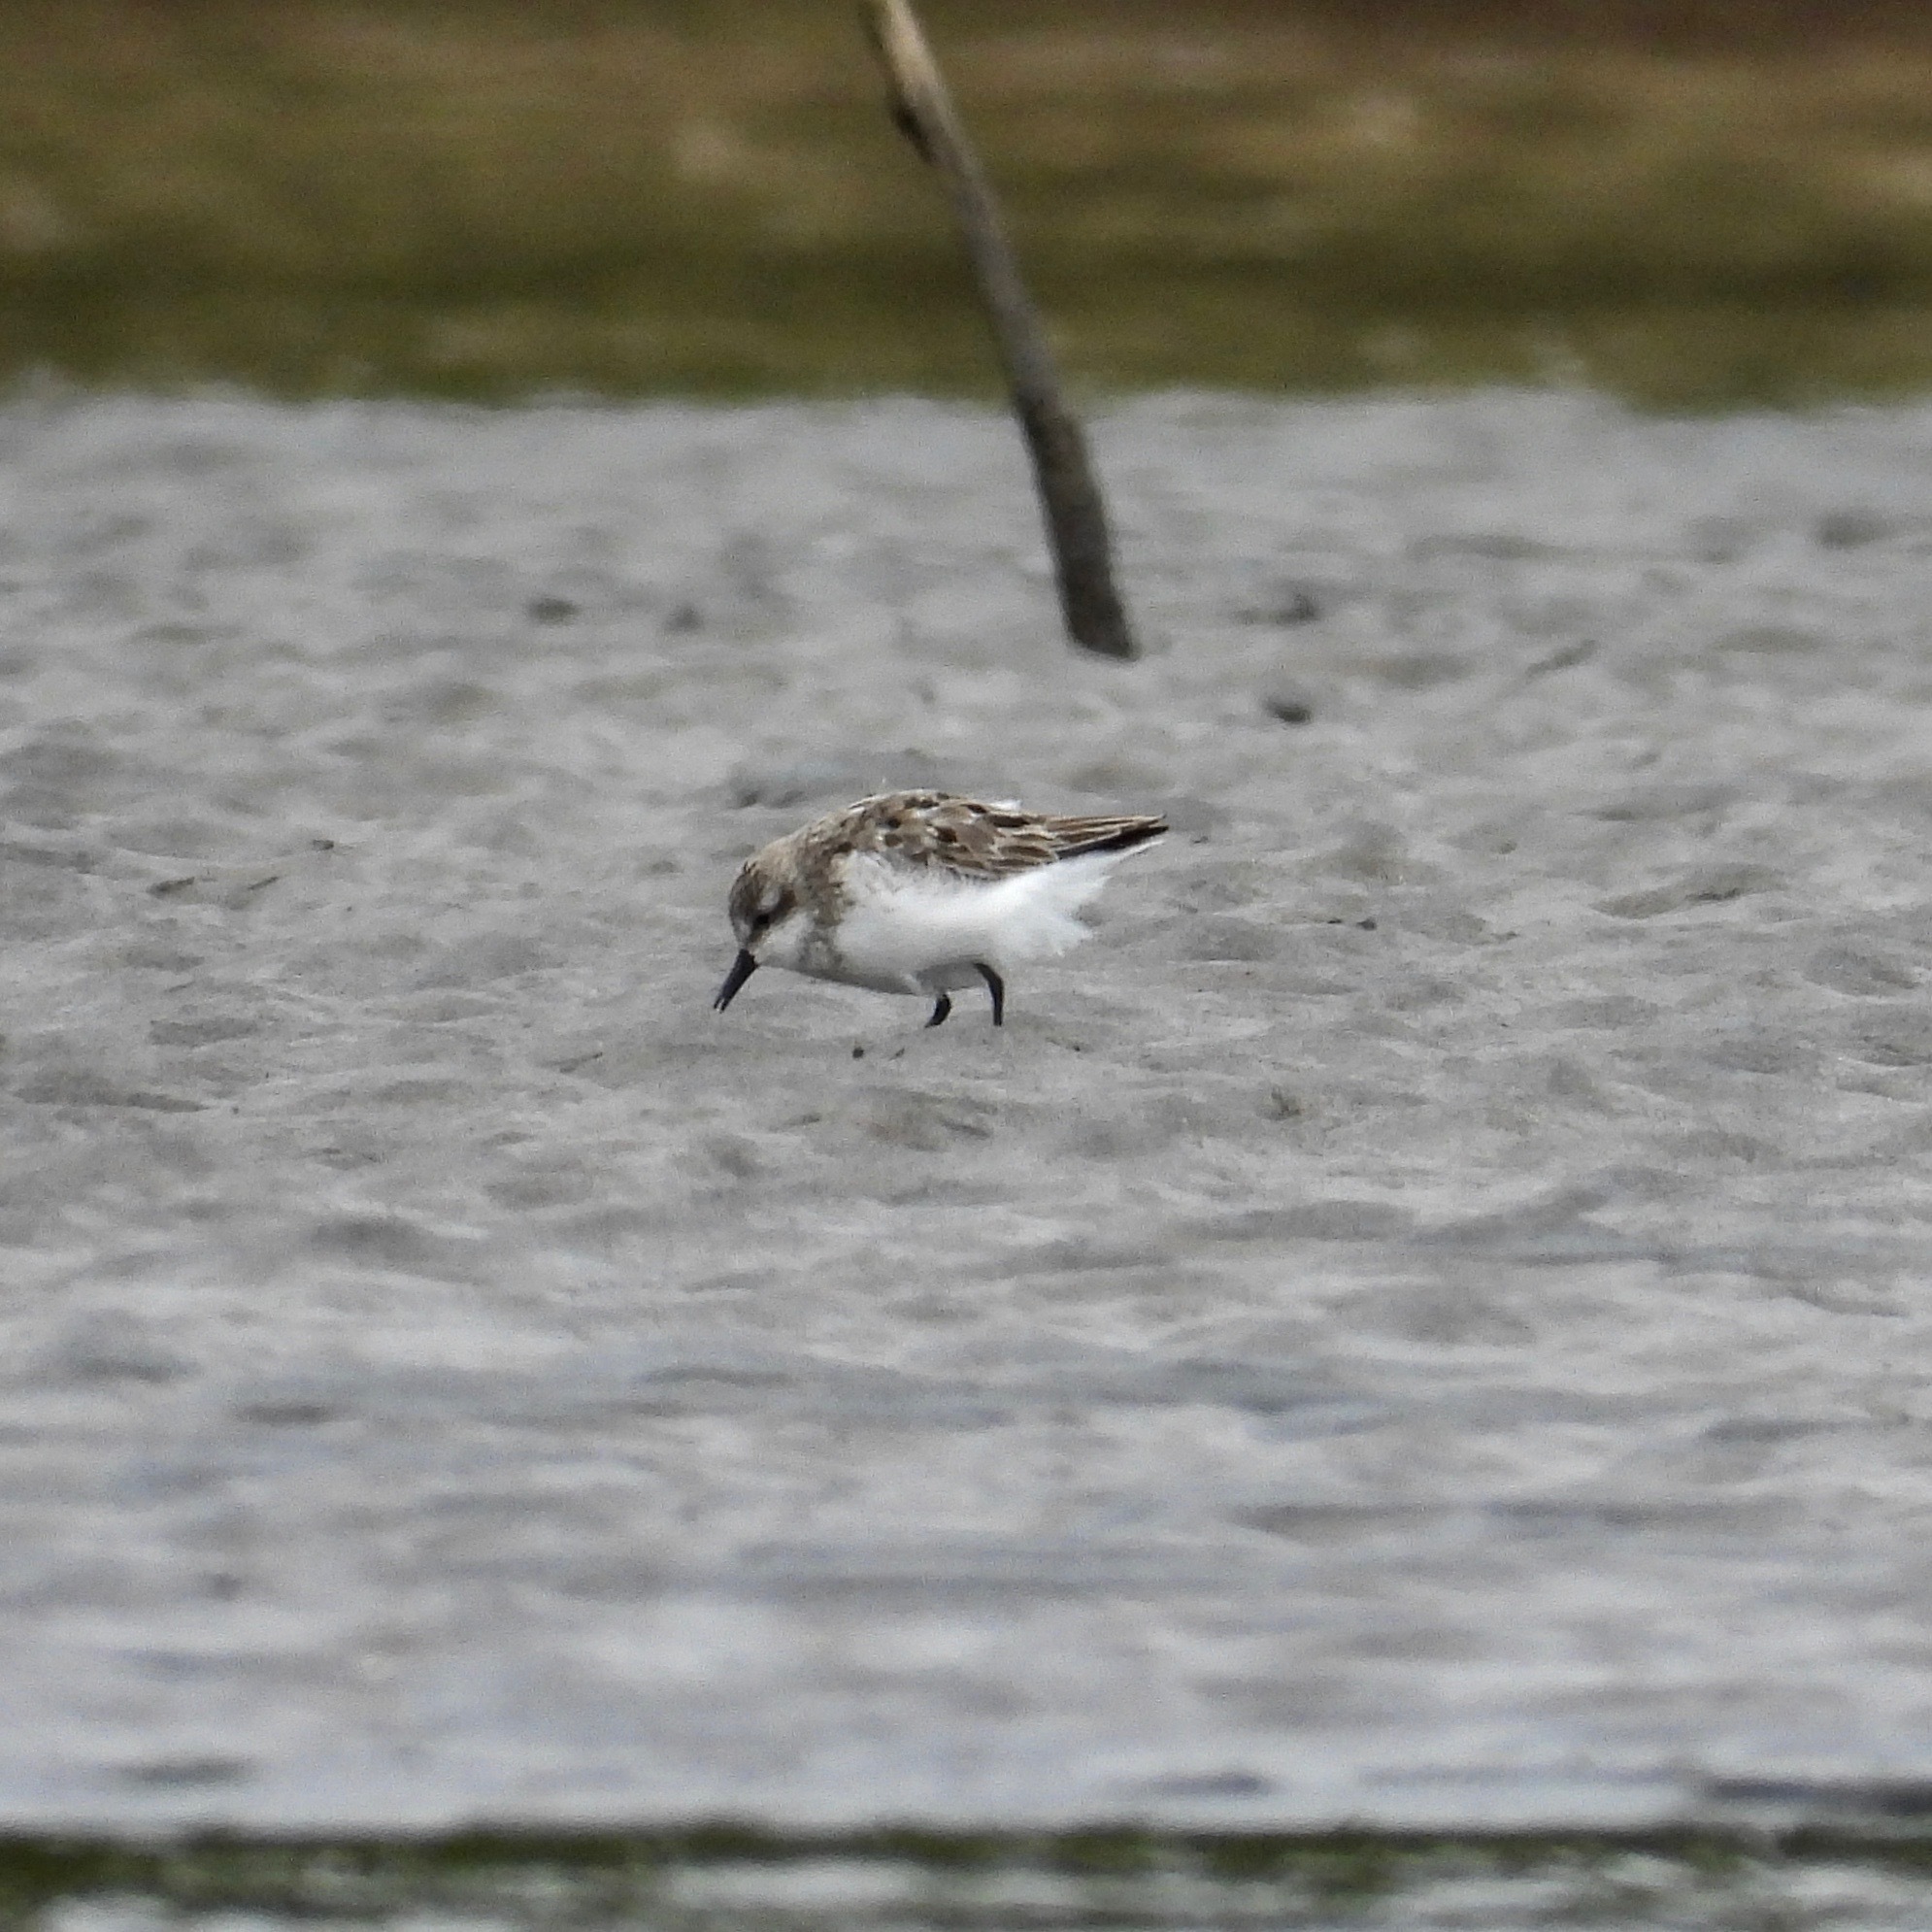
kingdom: Animalia
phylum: Chordata
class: Aves
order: Charadriiformes
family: Scolopacidae
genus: Calidris
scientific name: Calidris pusilla
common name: Semipalmated sandpiper
